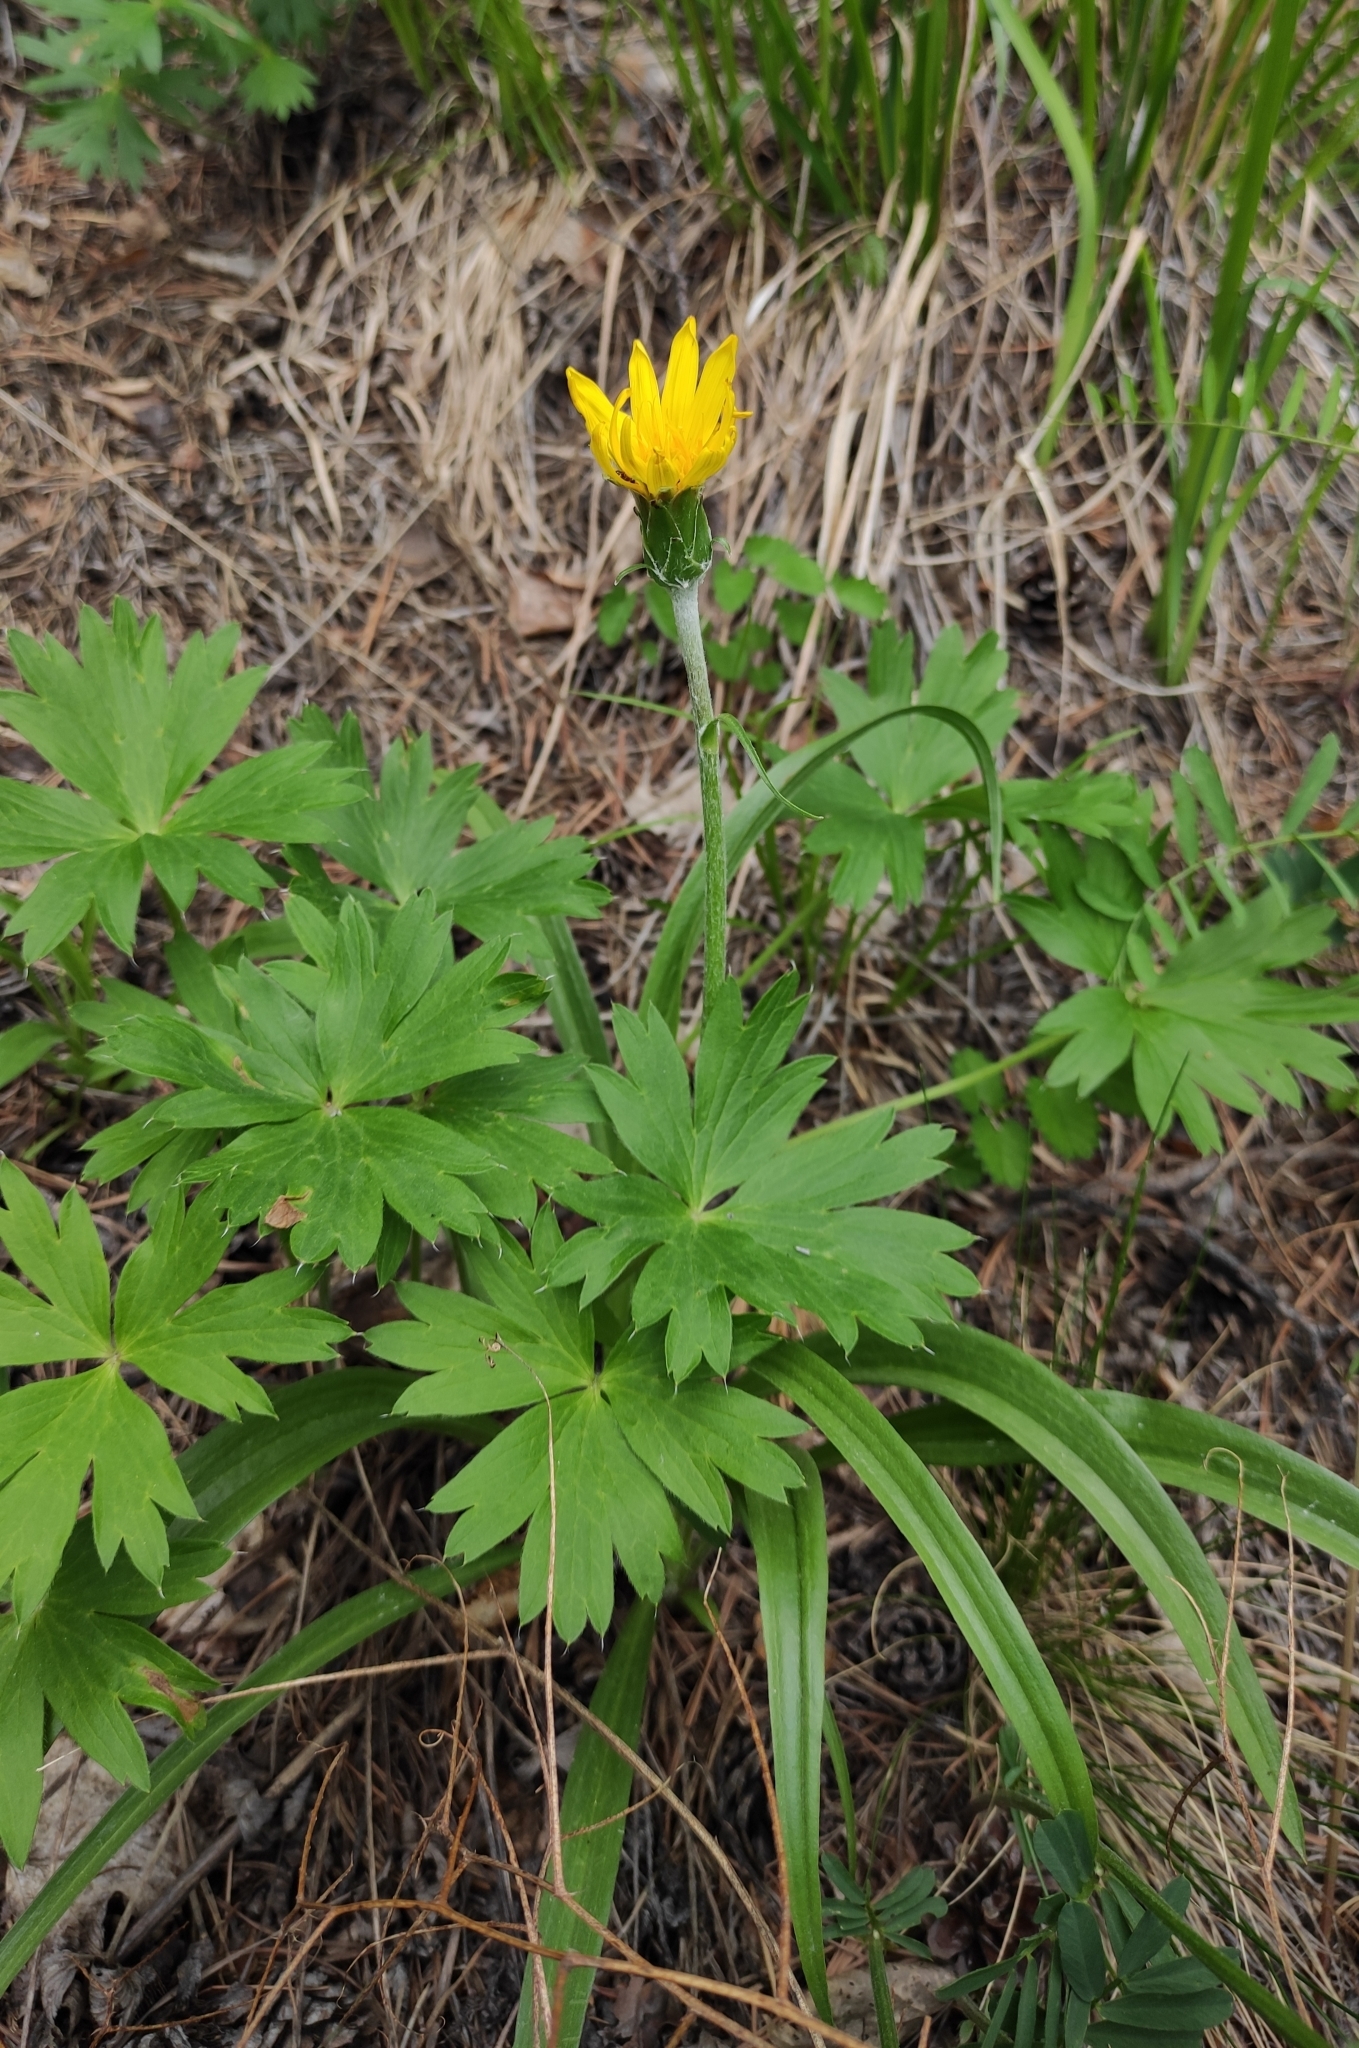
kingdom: Plantae
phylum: Tracheophyta
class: Magnoliopsida
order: Asterales
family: Asteraceae
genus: Scorzonera
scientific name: Scorzonera radiata
